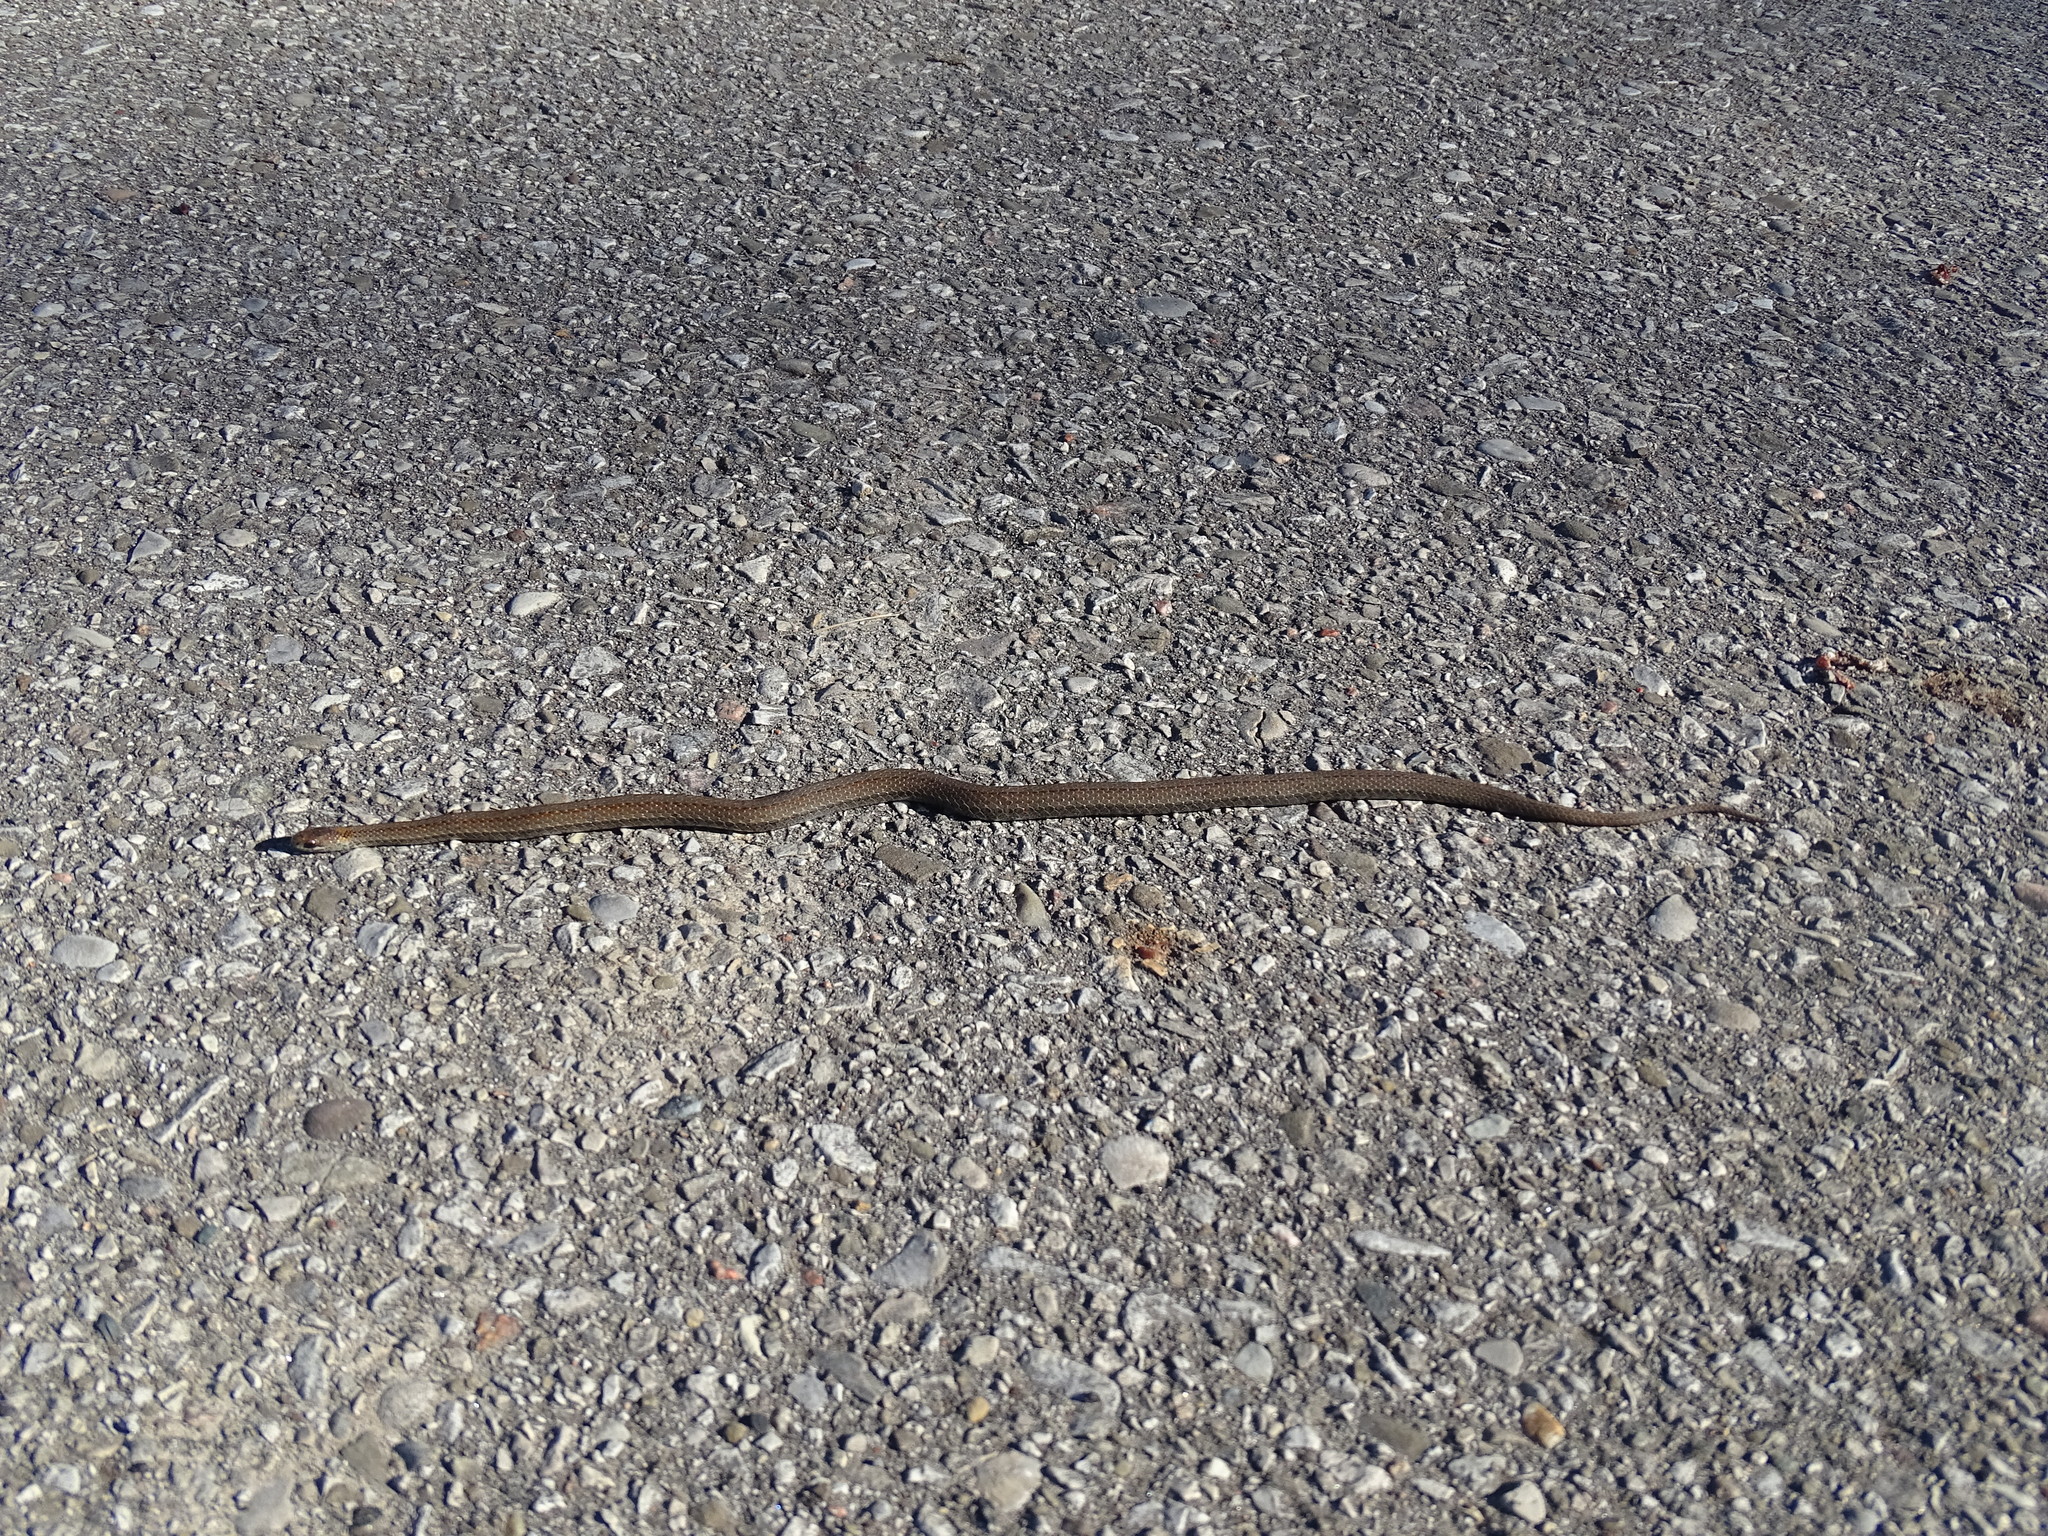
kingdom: Animalia
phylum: Chordata
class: Squamata
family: Colubridae
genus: Storeria
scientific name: Storeria occipitomaculata
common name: Redbelly snake
